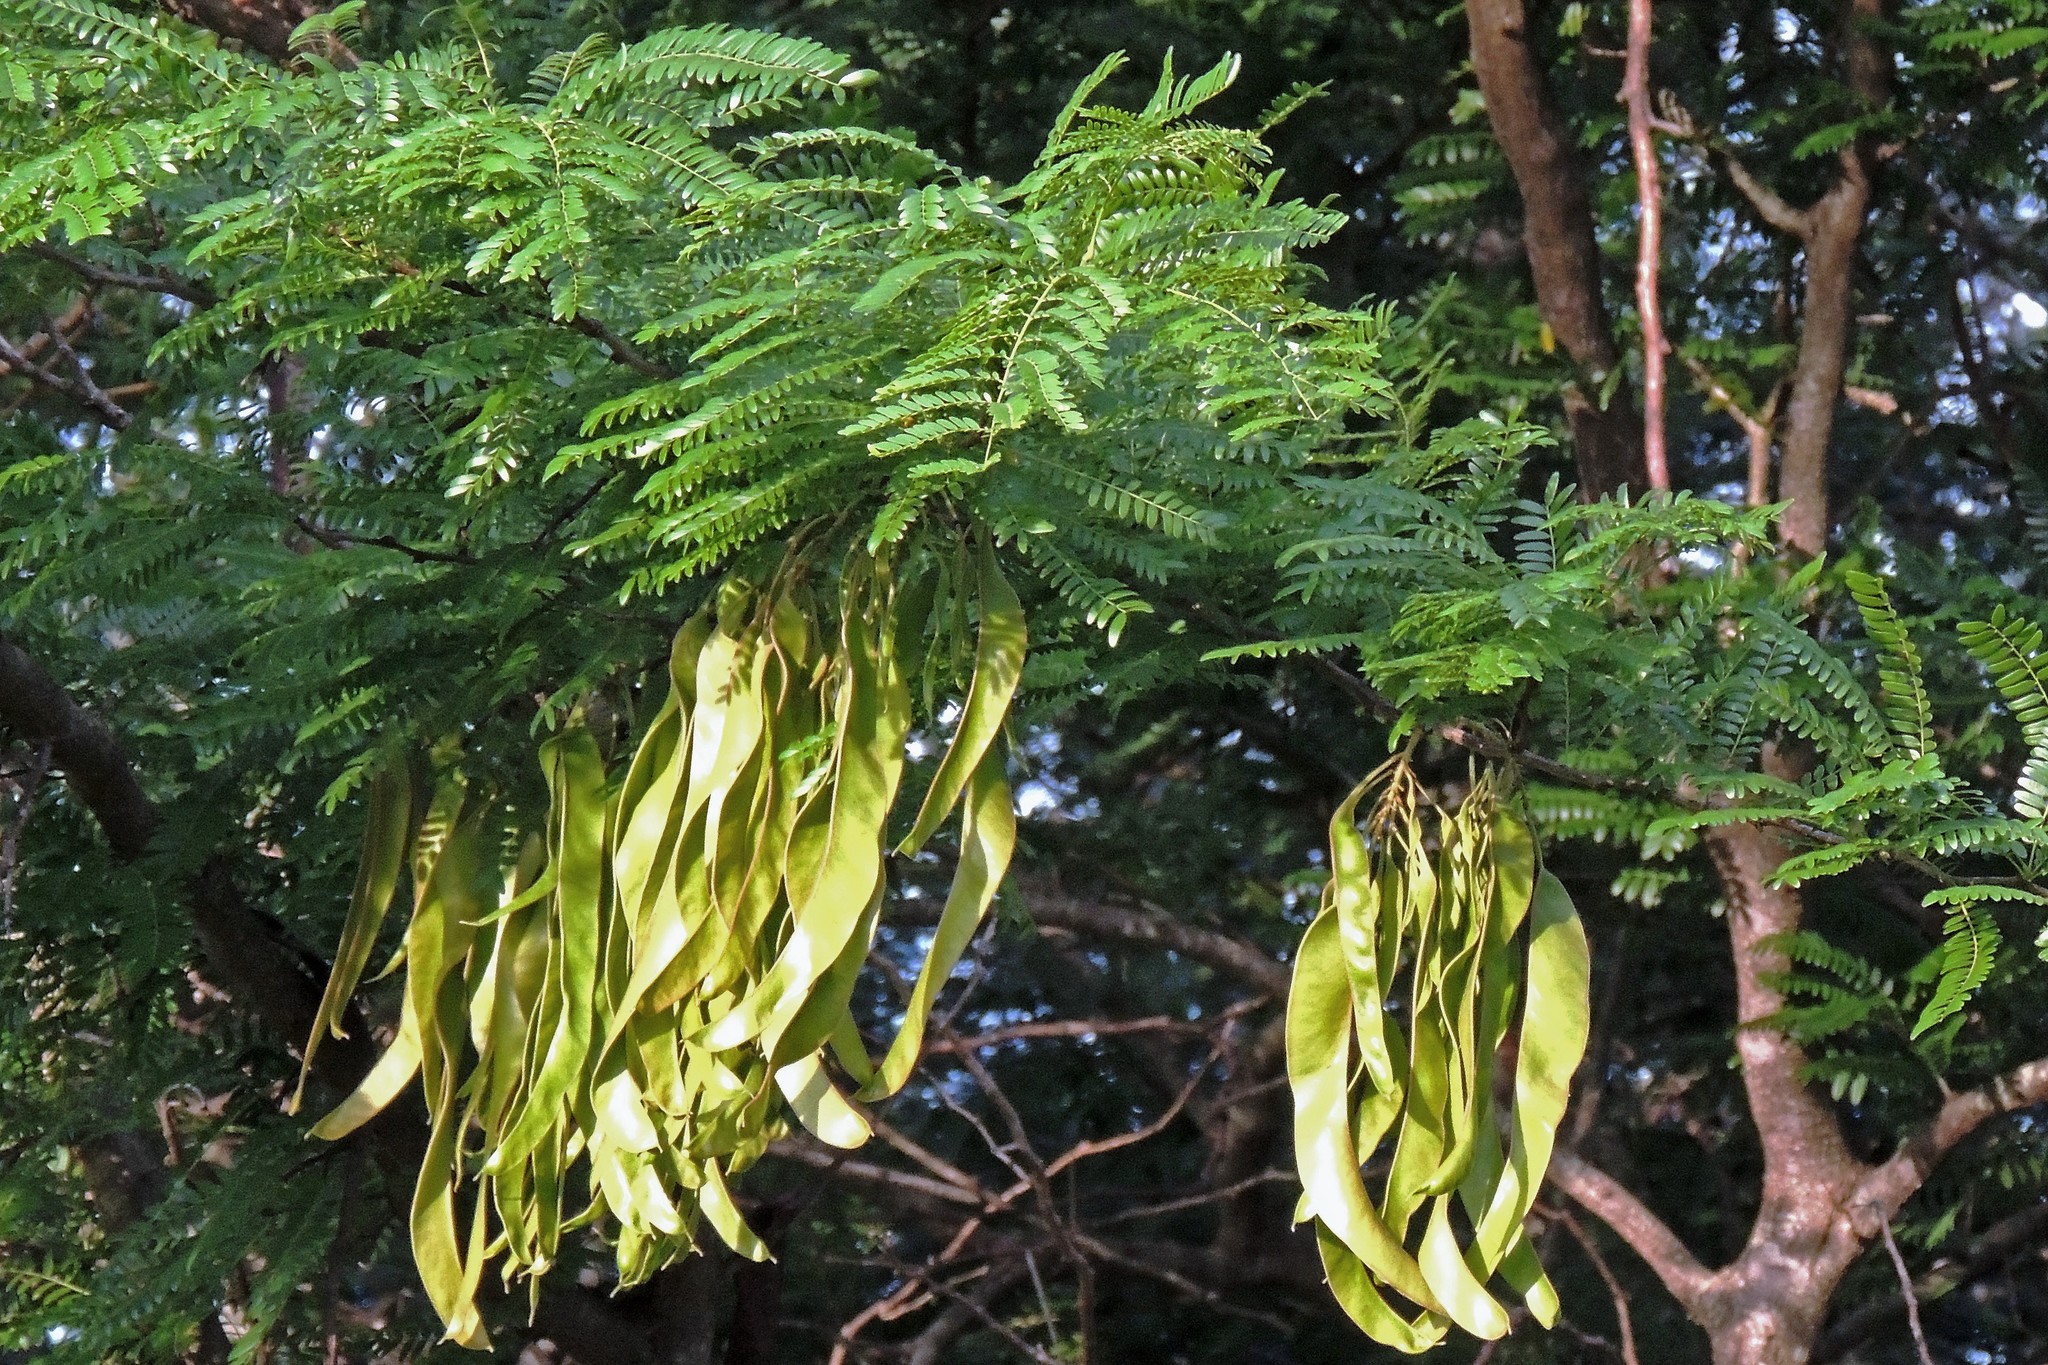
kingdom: Plantae
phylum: Tracheophyta
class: Magnoliopsida
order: Fabales
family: Fabaceae
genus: Gleditsia
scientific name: Gleditsia triacanthos
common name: Common honeylocust
